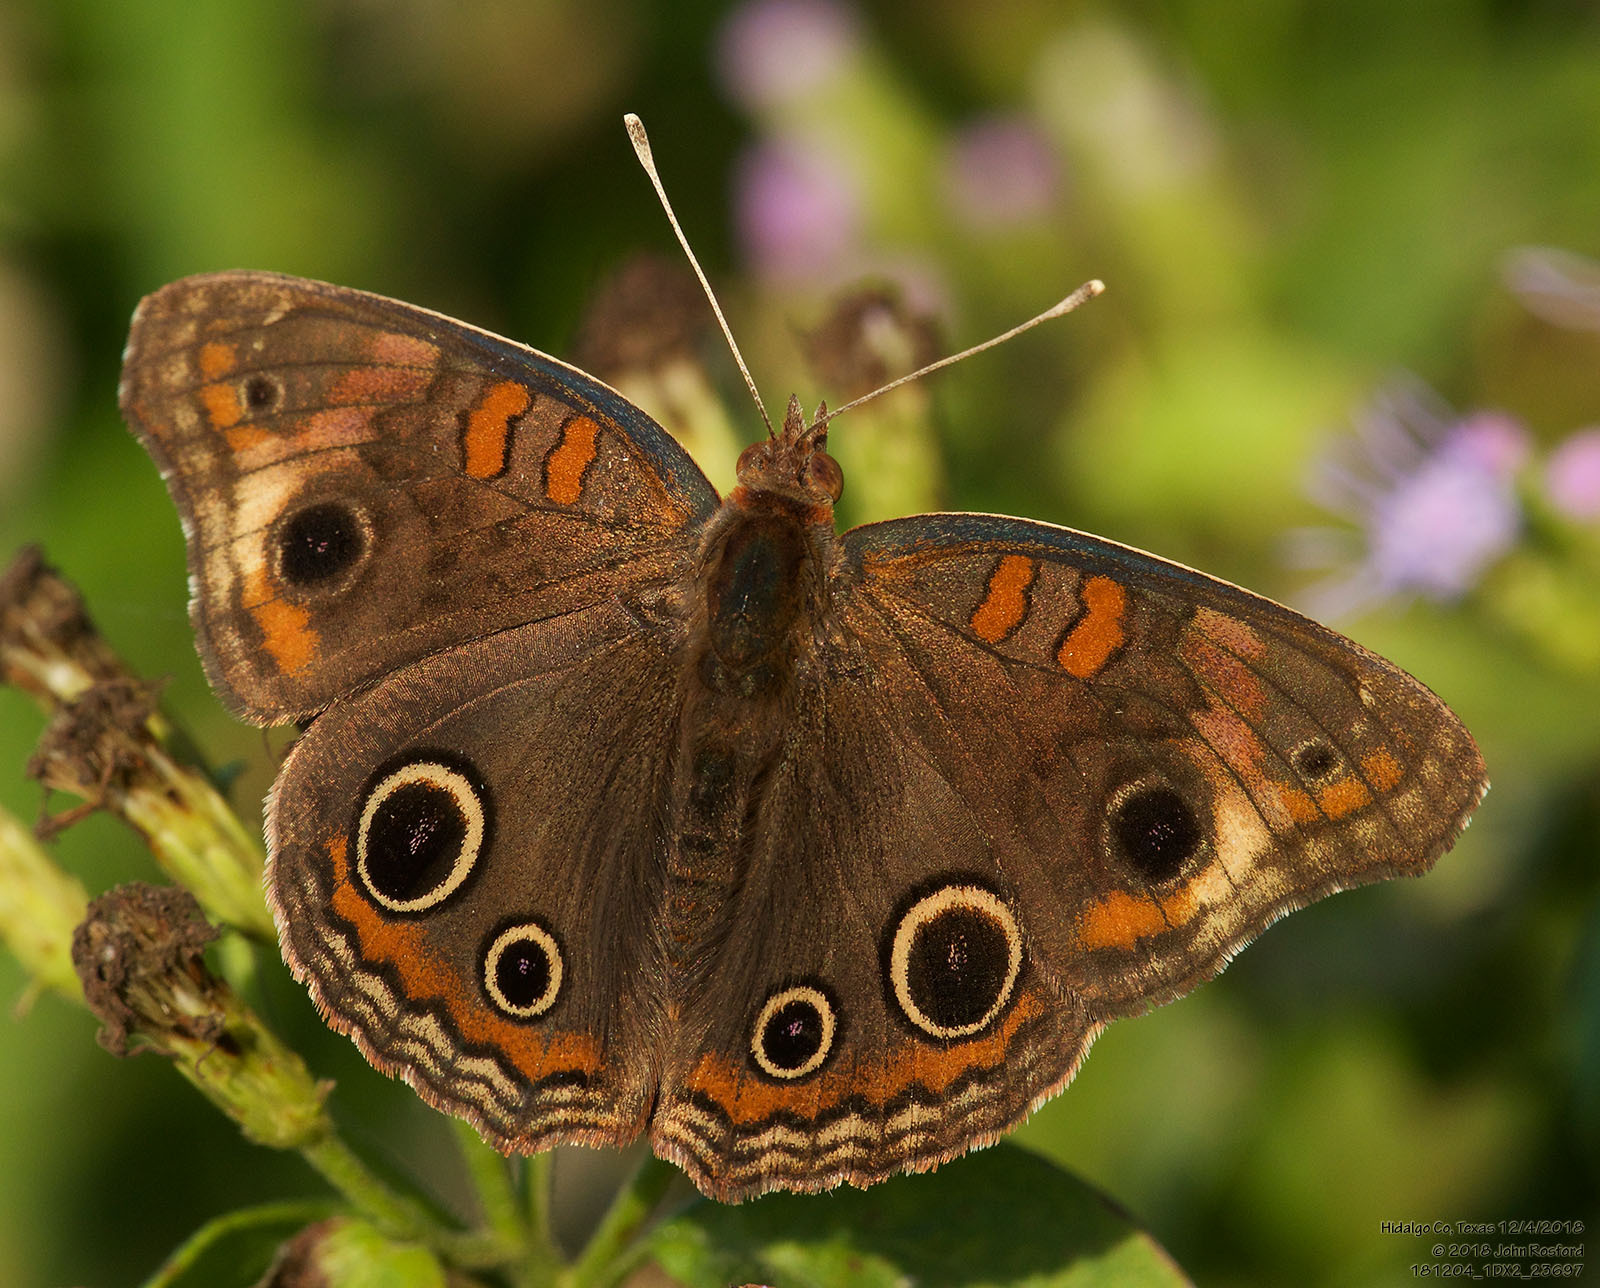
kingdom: Animalia
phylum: Arthropoda
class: Insecta
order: Lepidoptera
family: Nymphalidae
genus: Junonia
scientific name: Junonia stemosa
